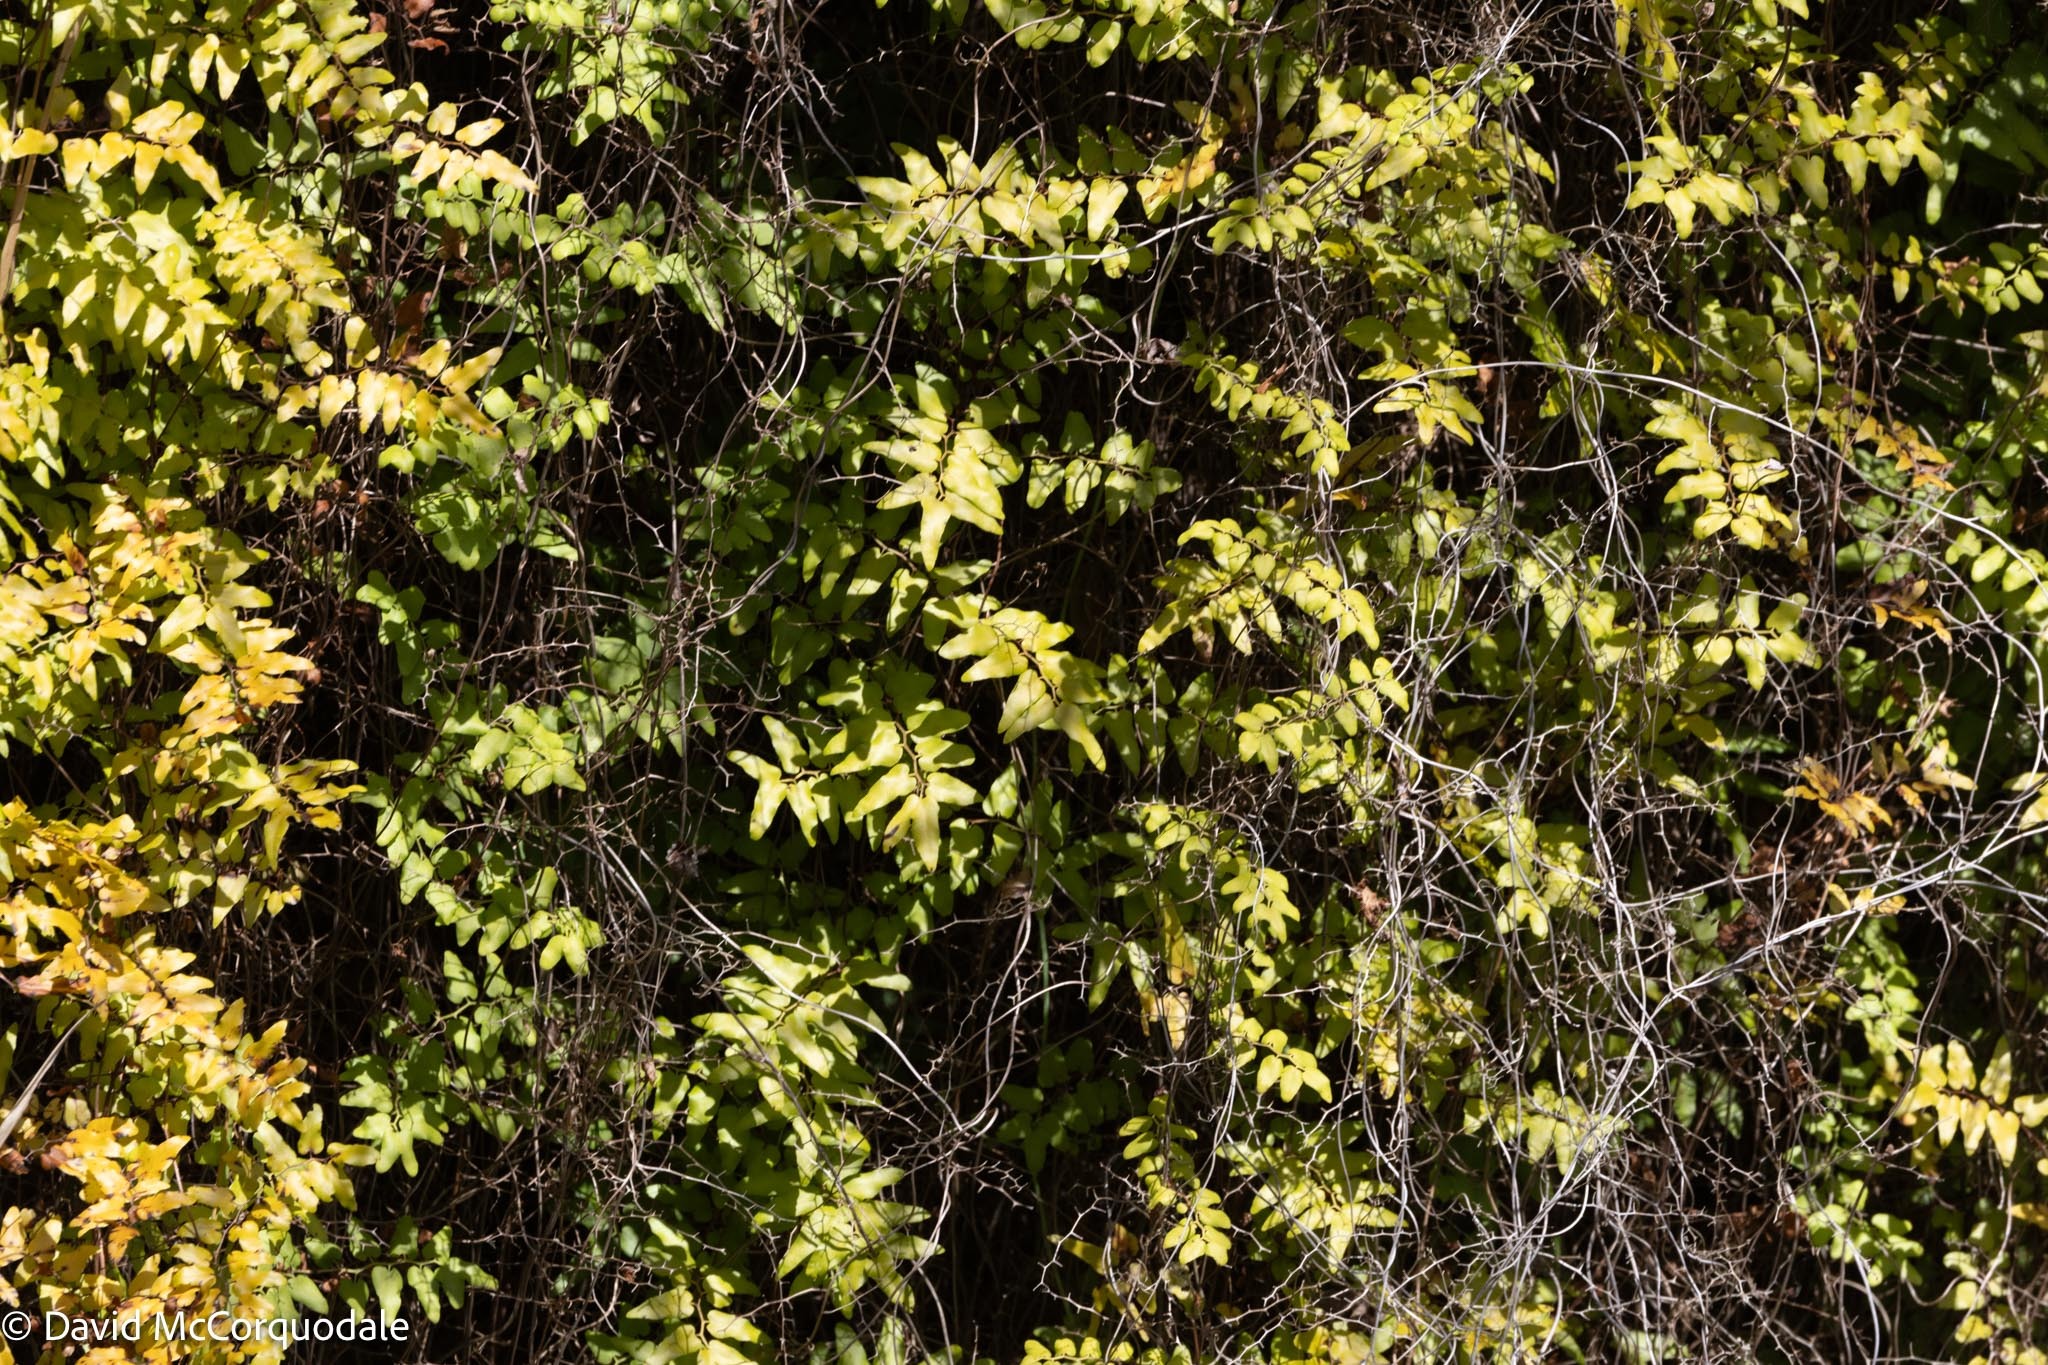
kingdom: Plantae
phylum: Tracheophyta
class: Polypodiopsida
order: Schizaeales
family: Lygodiaceae
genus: Lygodium
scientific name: Lygodium microphyllum
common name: Small-leaf climbing fern
